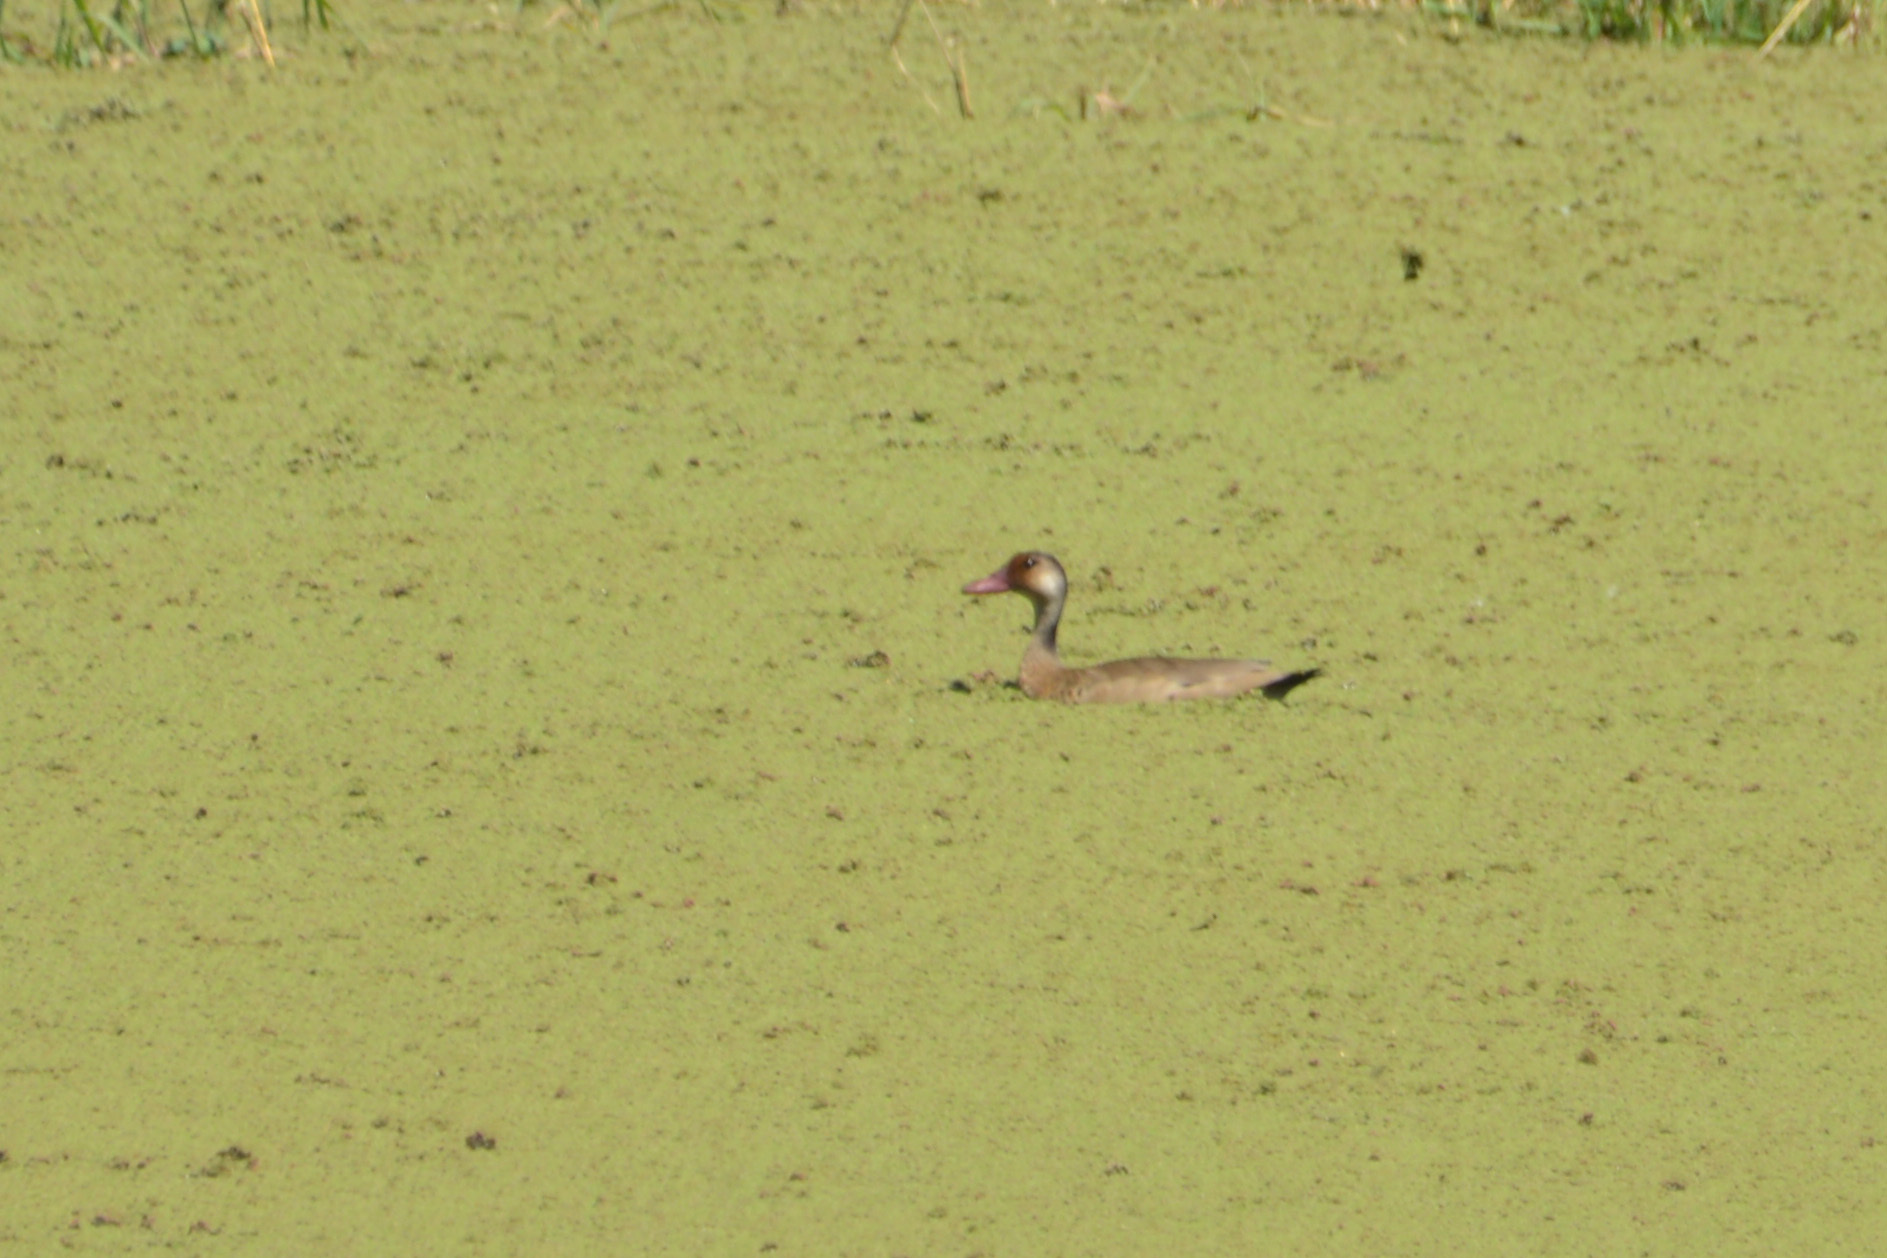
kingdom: Animalia
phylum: Chordata
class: Aves
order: Anseriformes
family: Anatidae
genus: Amazonetta
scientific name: Amazonetta brasiliensis
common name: Brazilian teal
